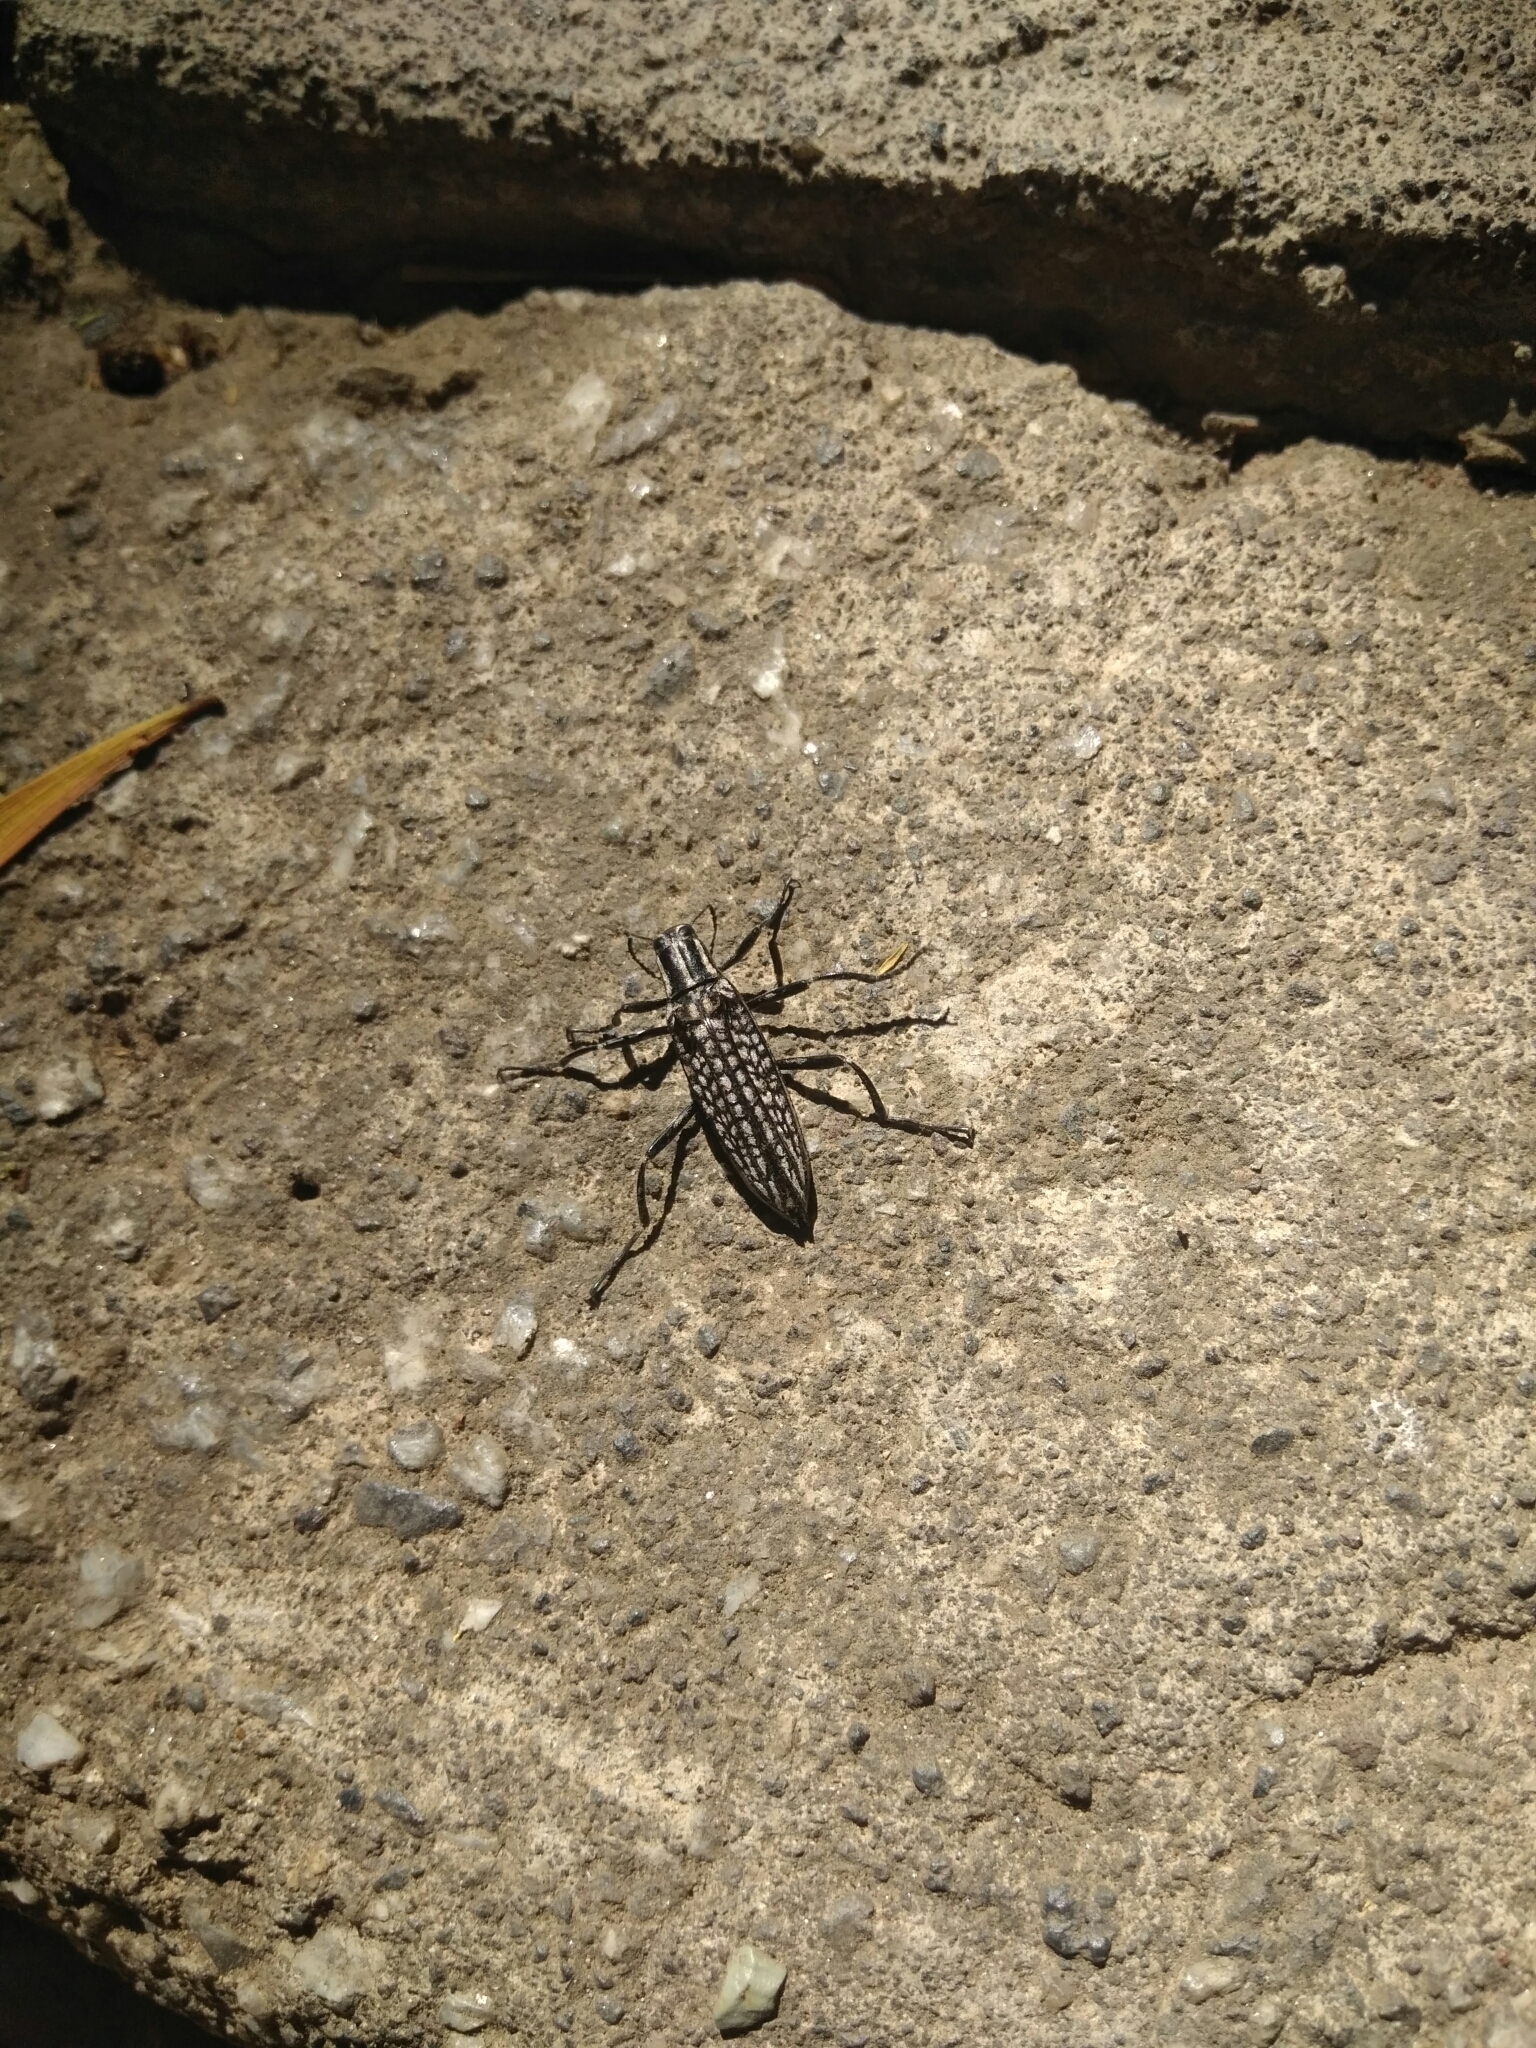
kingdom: Animalia
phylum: Arthropoda
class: Insecta
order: Coleoptera
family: Tenebrionidae
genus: Homocyrtus
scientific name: Homocyrtus
